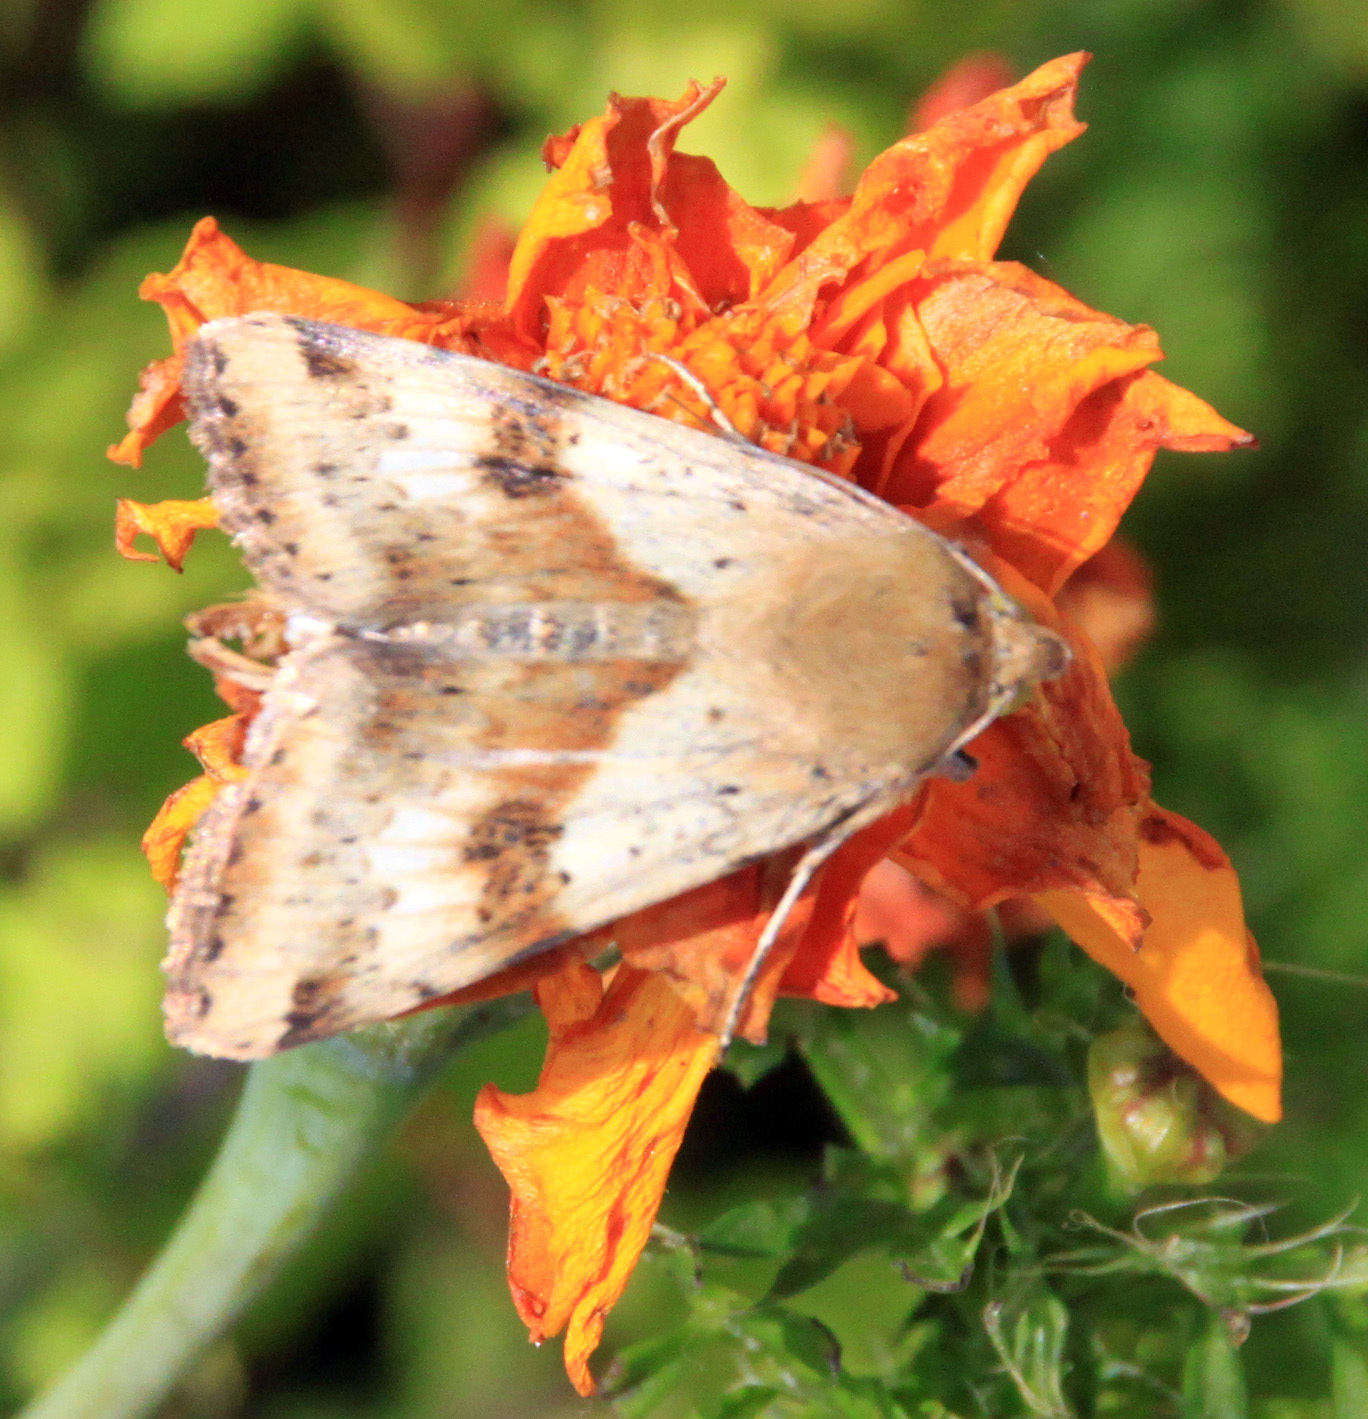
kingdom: Animalia
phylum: Arthropoda
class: Insecta
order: Lepidoptera
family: Noctuidae
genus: Heliothis
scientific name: Heliothis adaucta
